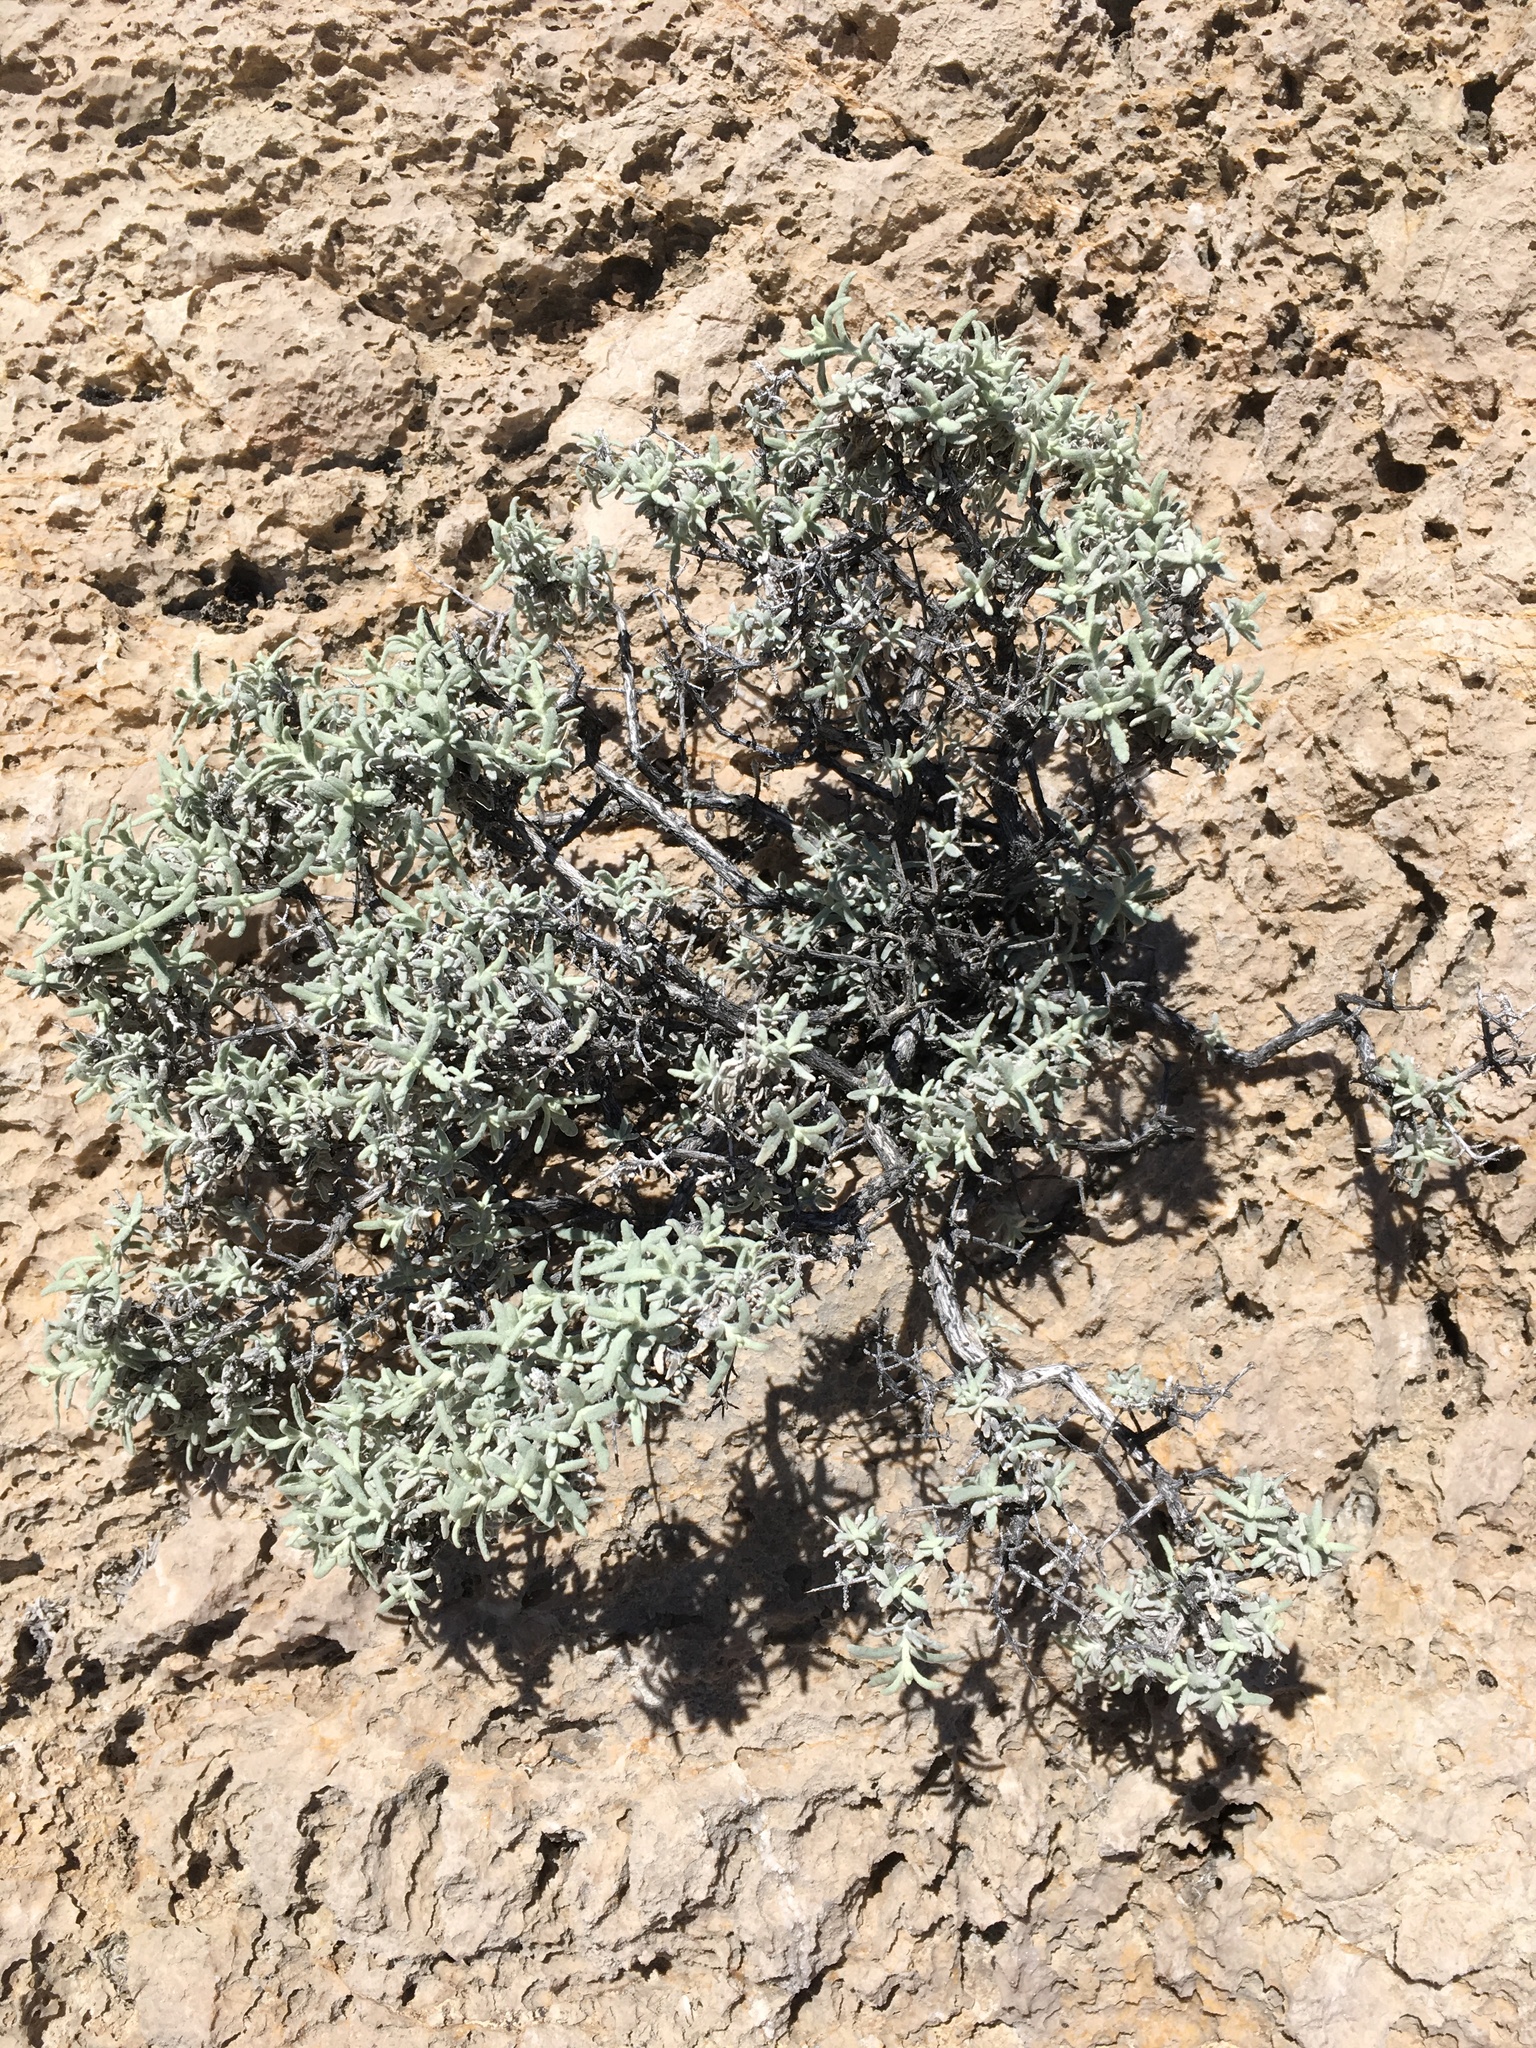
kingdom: Plantae
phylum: Tracheophyta
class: Magnoliopsida
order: Lamiales
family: Scrophulariaceae
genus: Buddleja
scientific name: Buddleja utahensis
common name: Utah butterfly-bush
